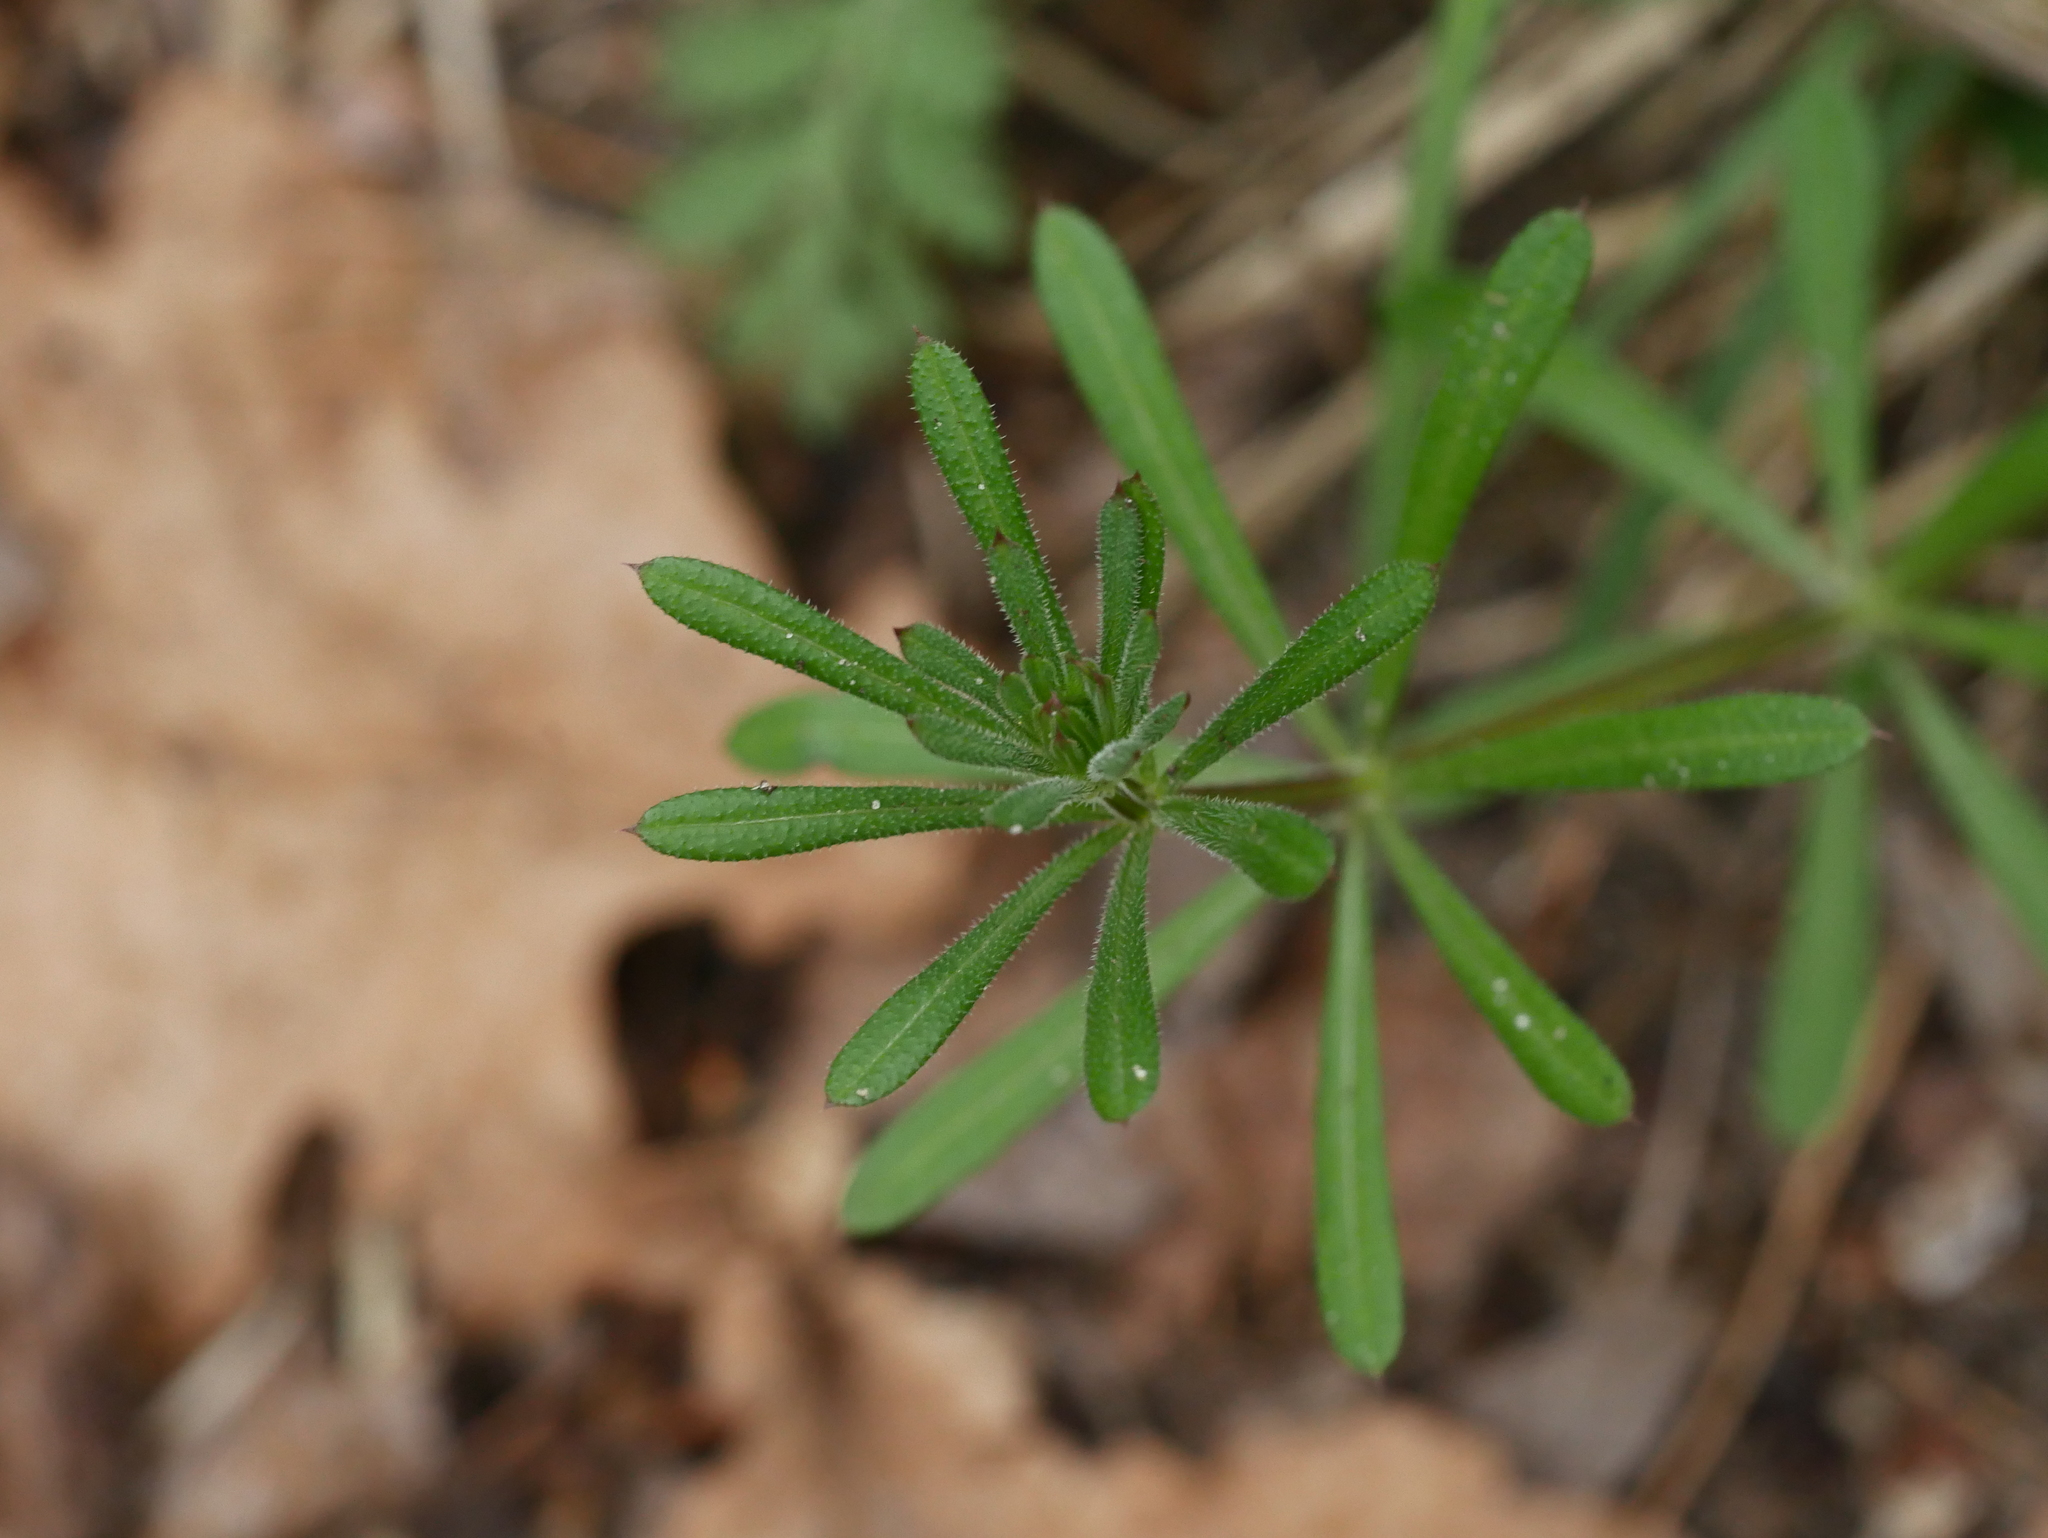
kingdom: Plantae
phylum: Tracheophyta
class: Magnoliopsida
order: Gentianales
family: Rubiaceae
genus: Galium
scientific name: Galium aparine
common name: Cleavers
